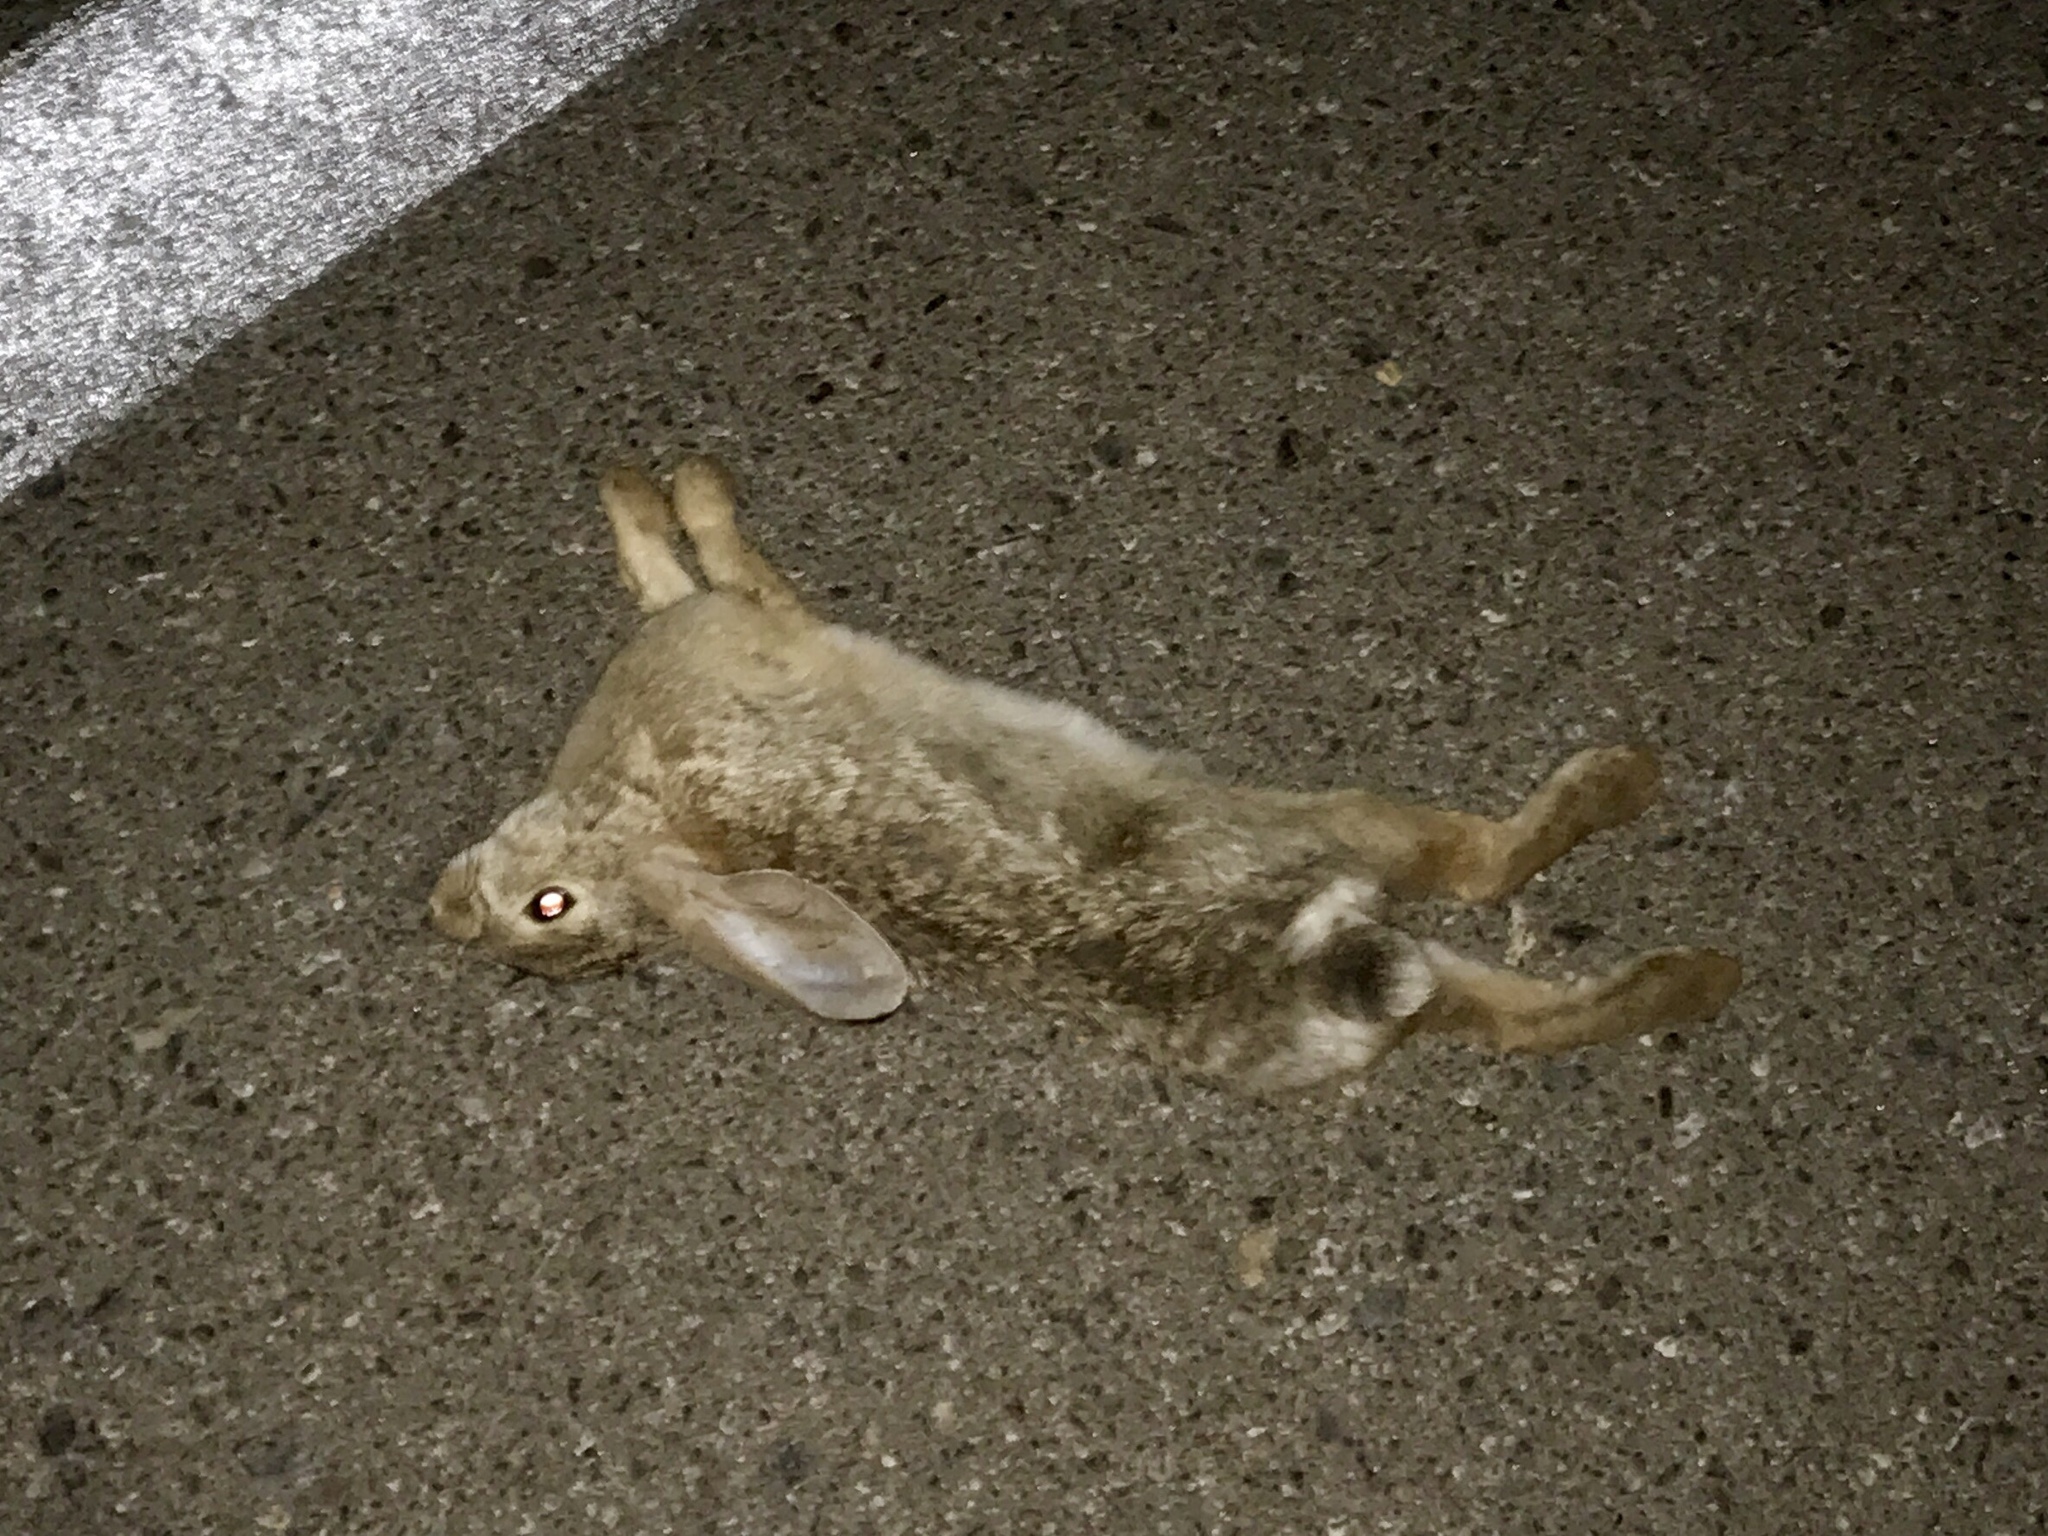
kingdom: Animalia
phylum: Chordata
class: Mammalia
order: Lagomorpha
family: Leporidae
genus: Sylvilagus
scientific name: Sylvilagus audubonii
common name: Desert cottontail
